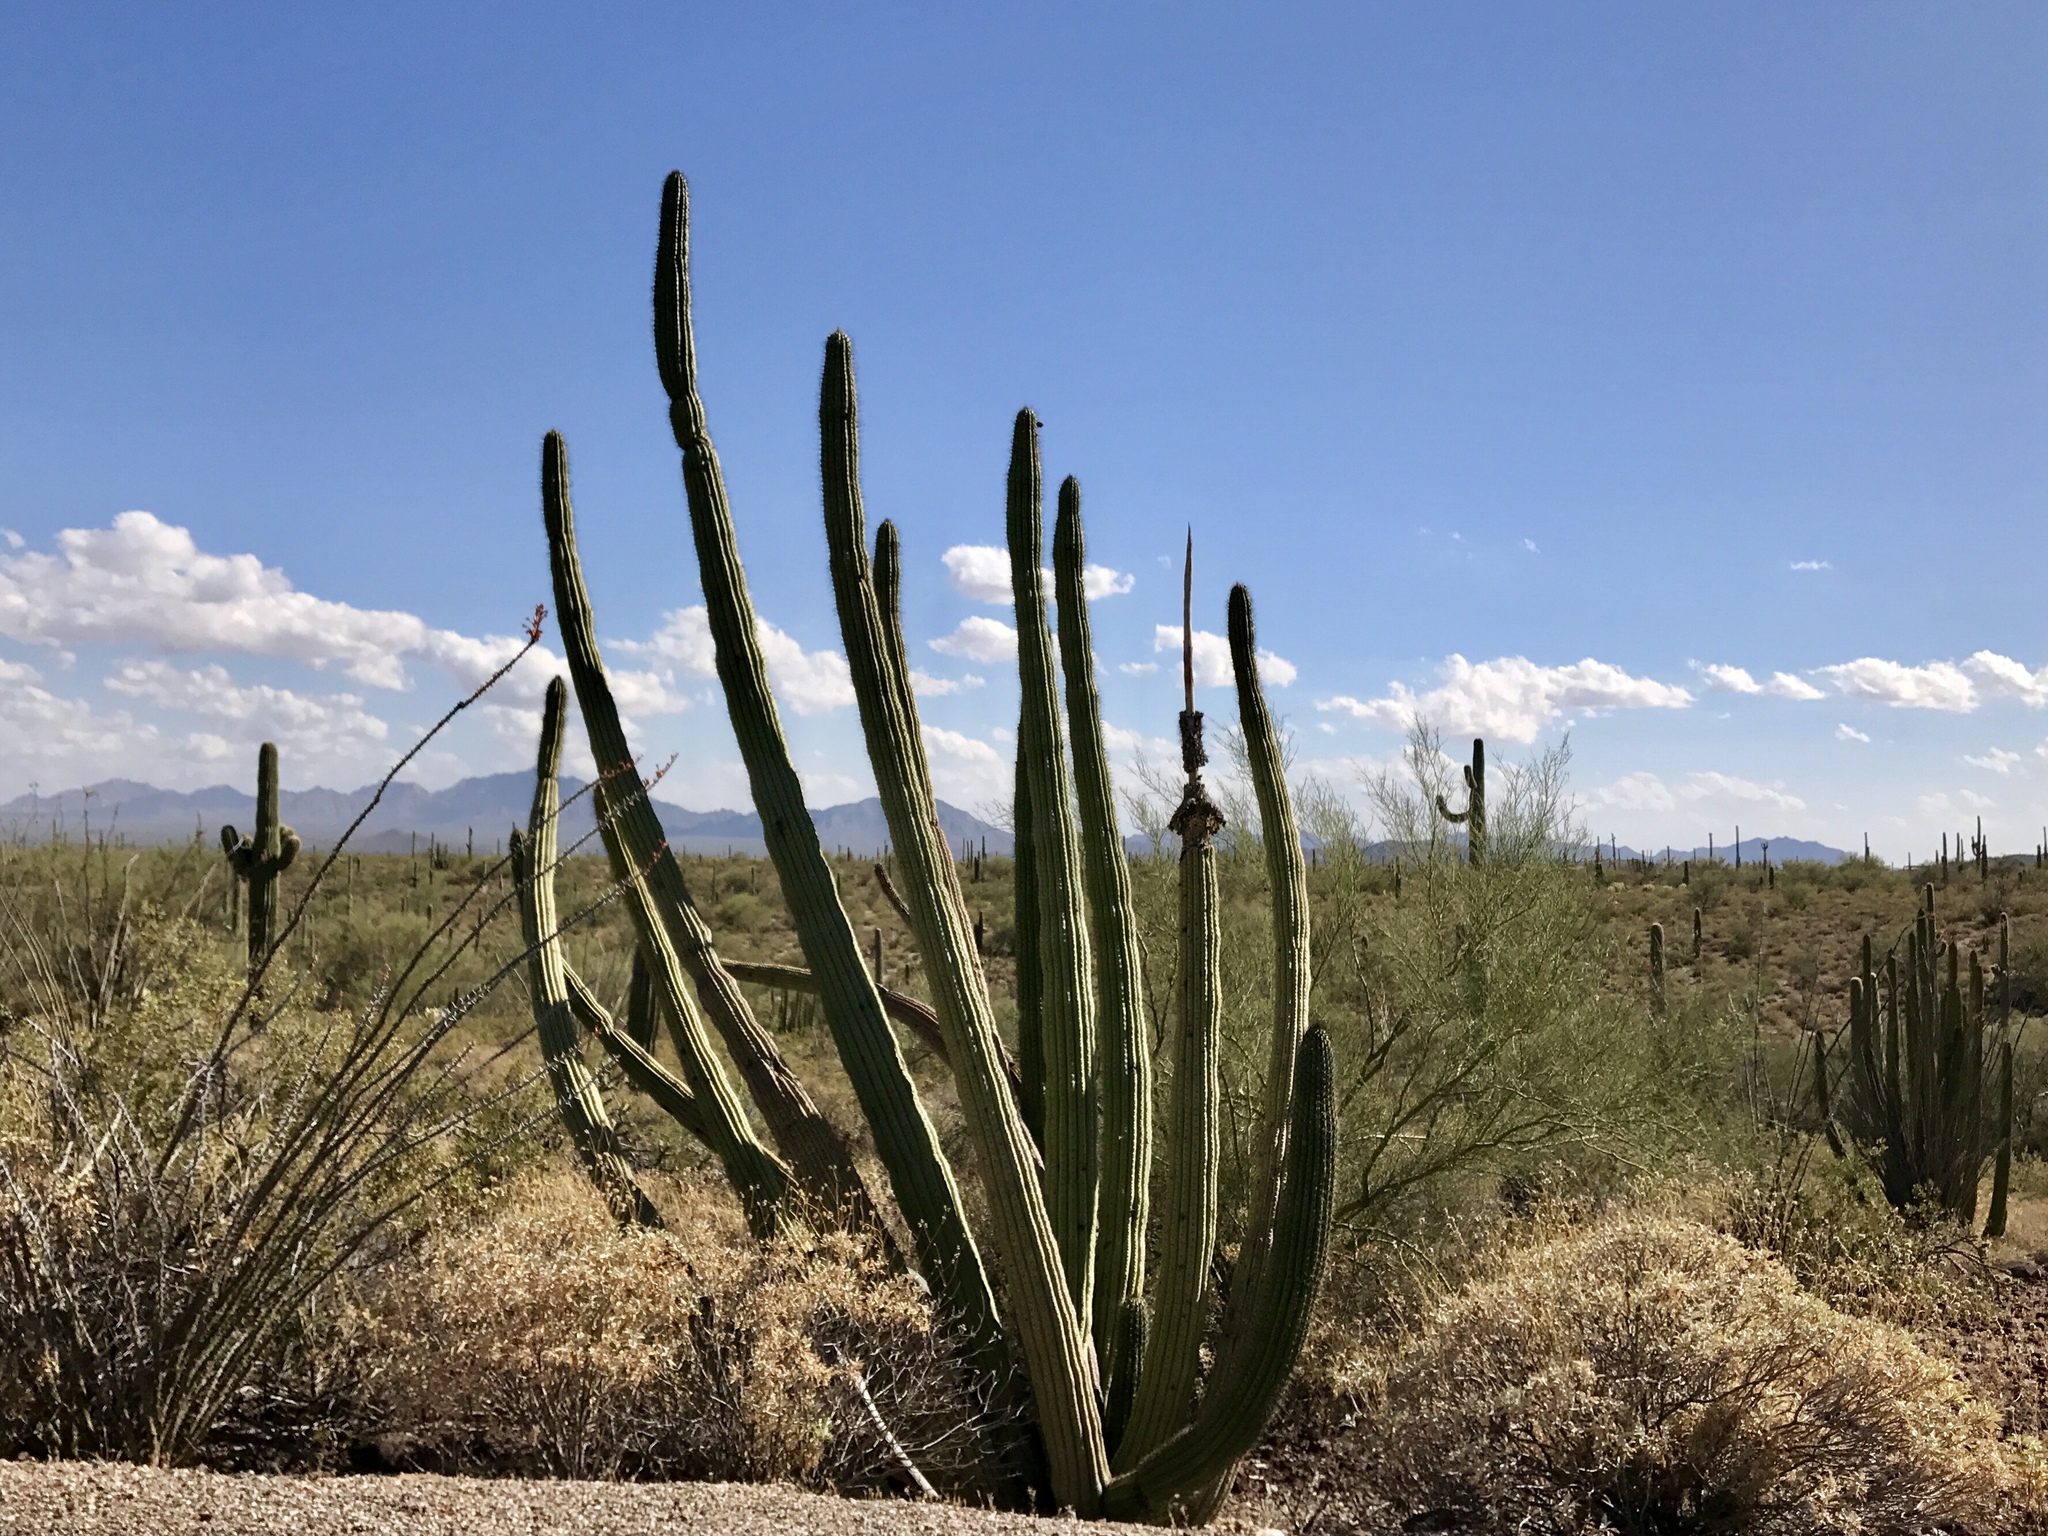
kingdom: Plantae
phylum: Tracheophyta
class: Magnoliopsida
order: Caryophyllales
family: Cactaceae
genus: Stenocereus
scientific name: Stenocereus thurberi
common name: Organ pipe cactus
